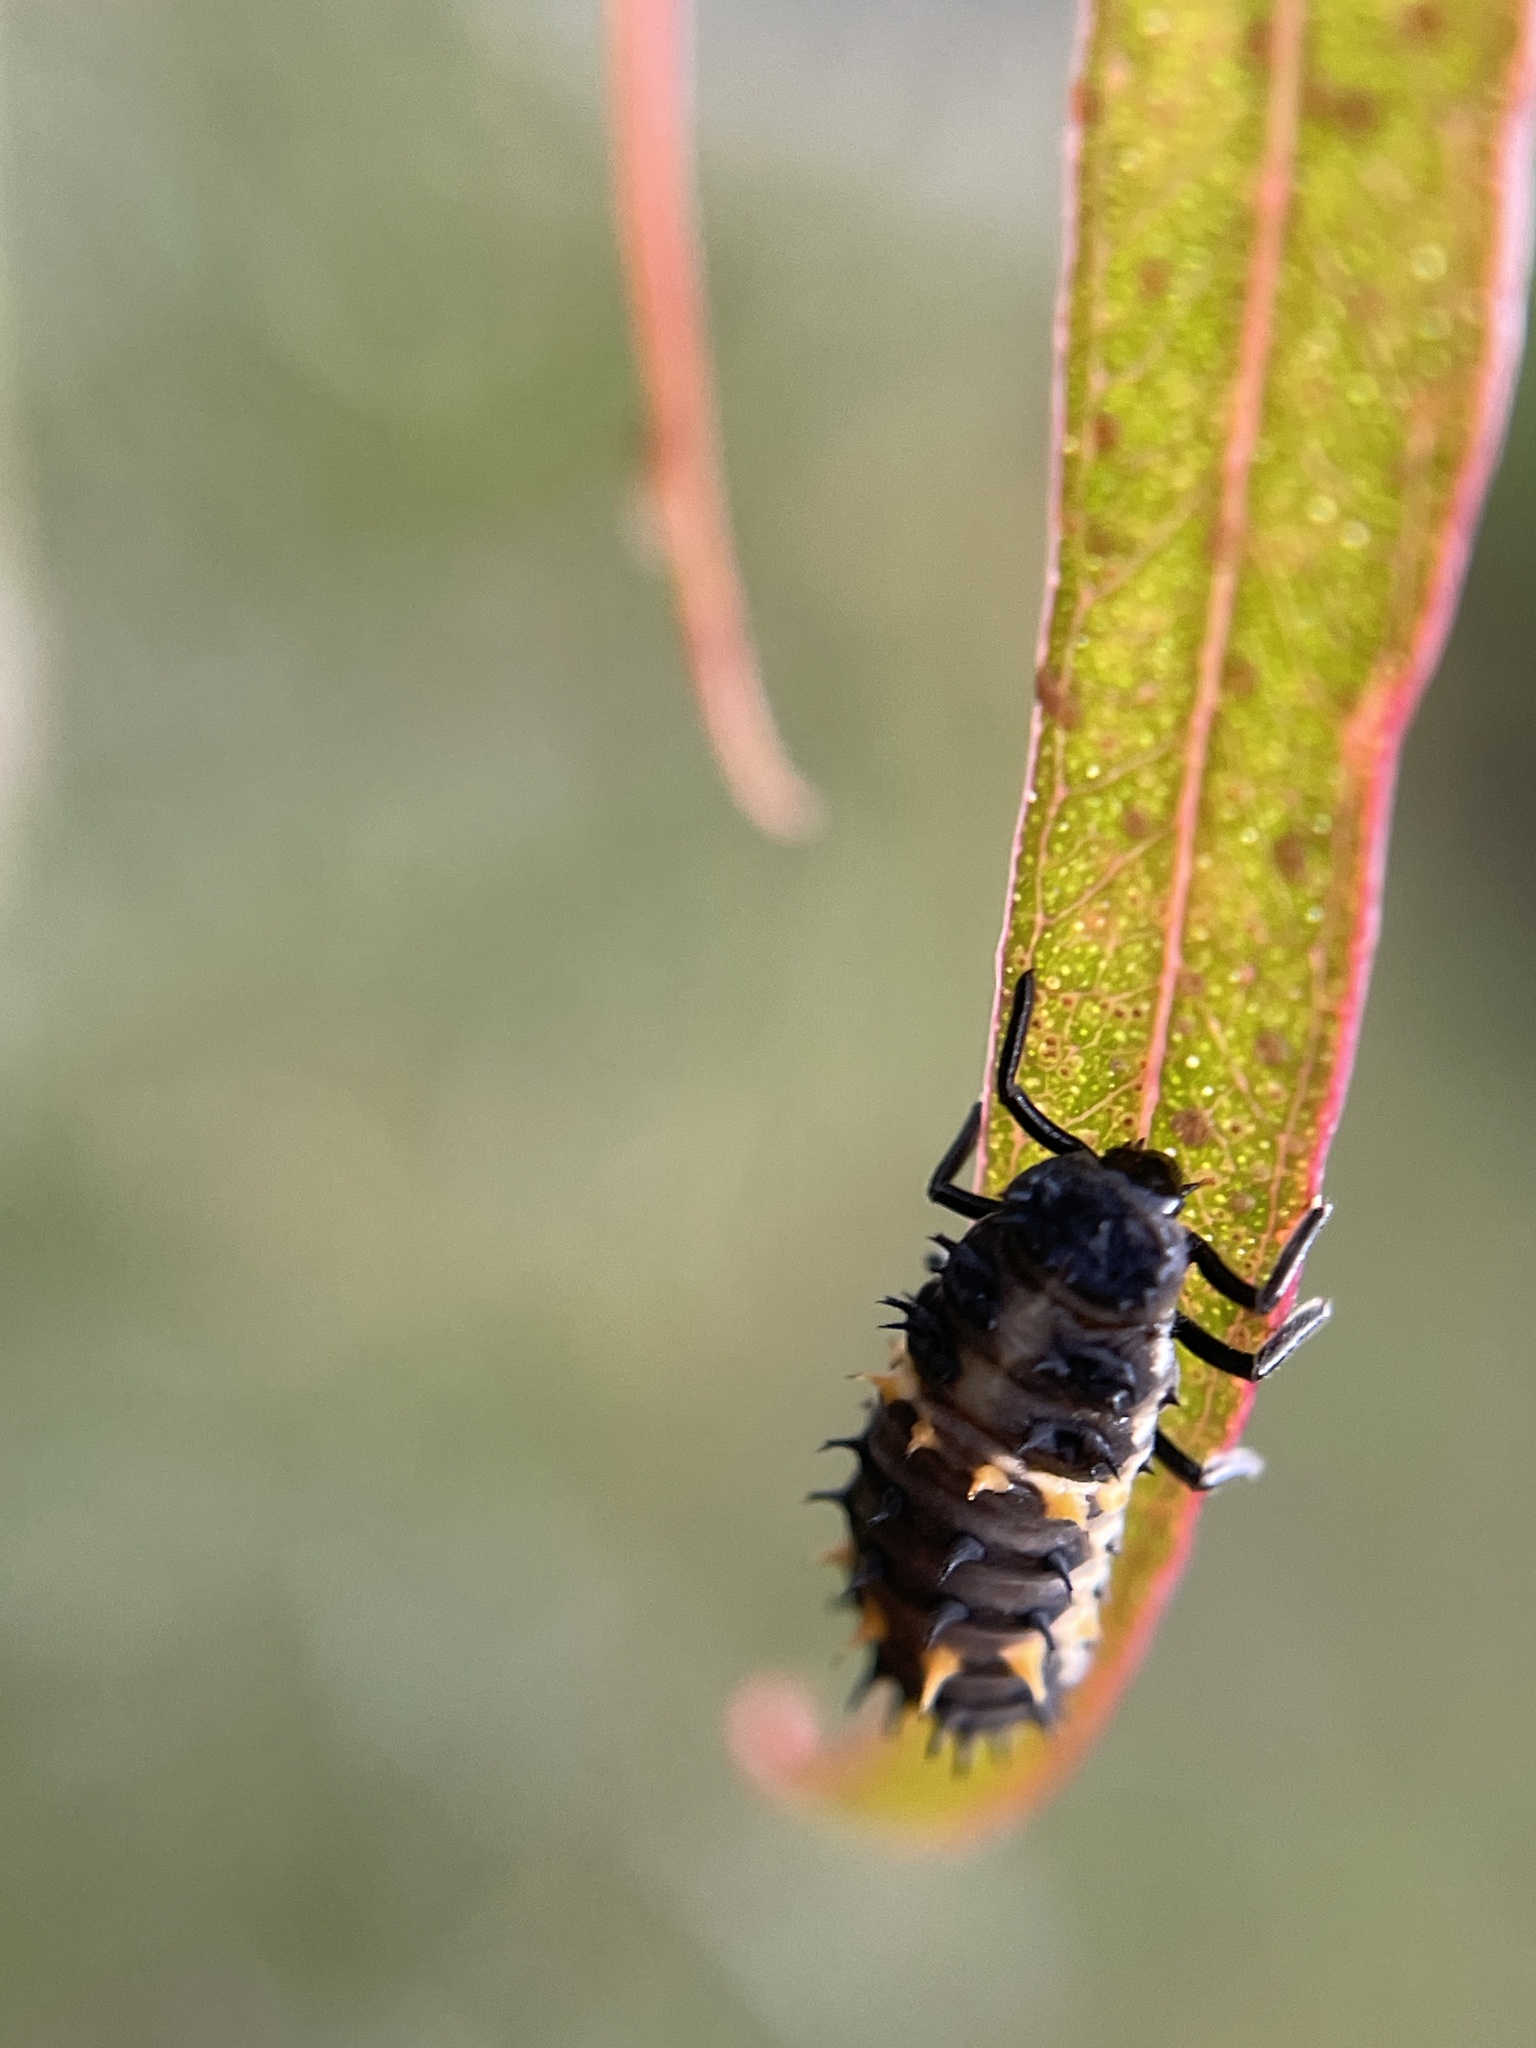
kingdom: Animalia
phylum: Arthropoda
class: Insecta
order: Coleoptera
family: Coccinellidae
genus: Harmonia
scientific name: Harmonia conformis
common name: Common spotted ladybird beetle
